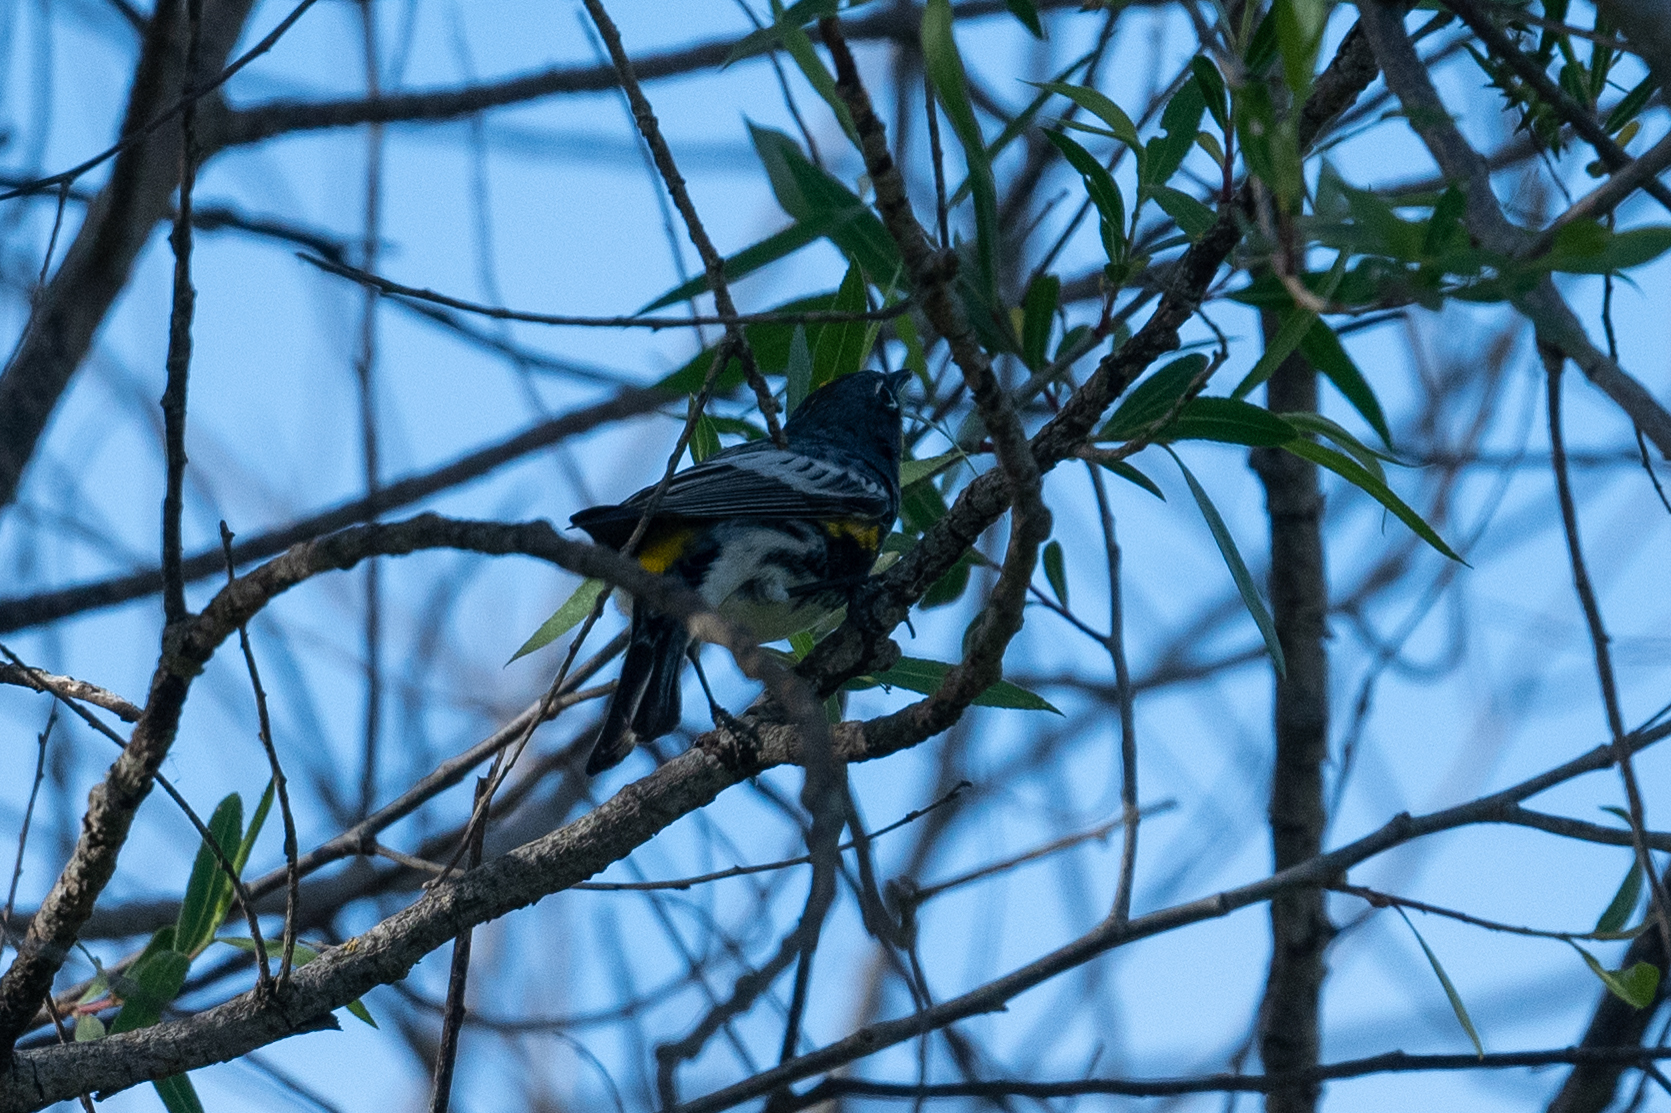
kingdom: Animalia
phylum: Chordata
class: Aves
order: Passeriformes
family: Parulidae
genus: Setophaga
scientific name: Setophaga coronata
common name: Myrtle warbler
